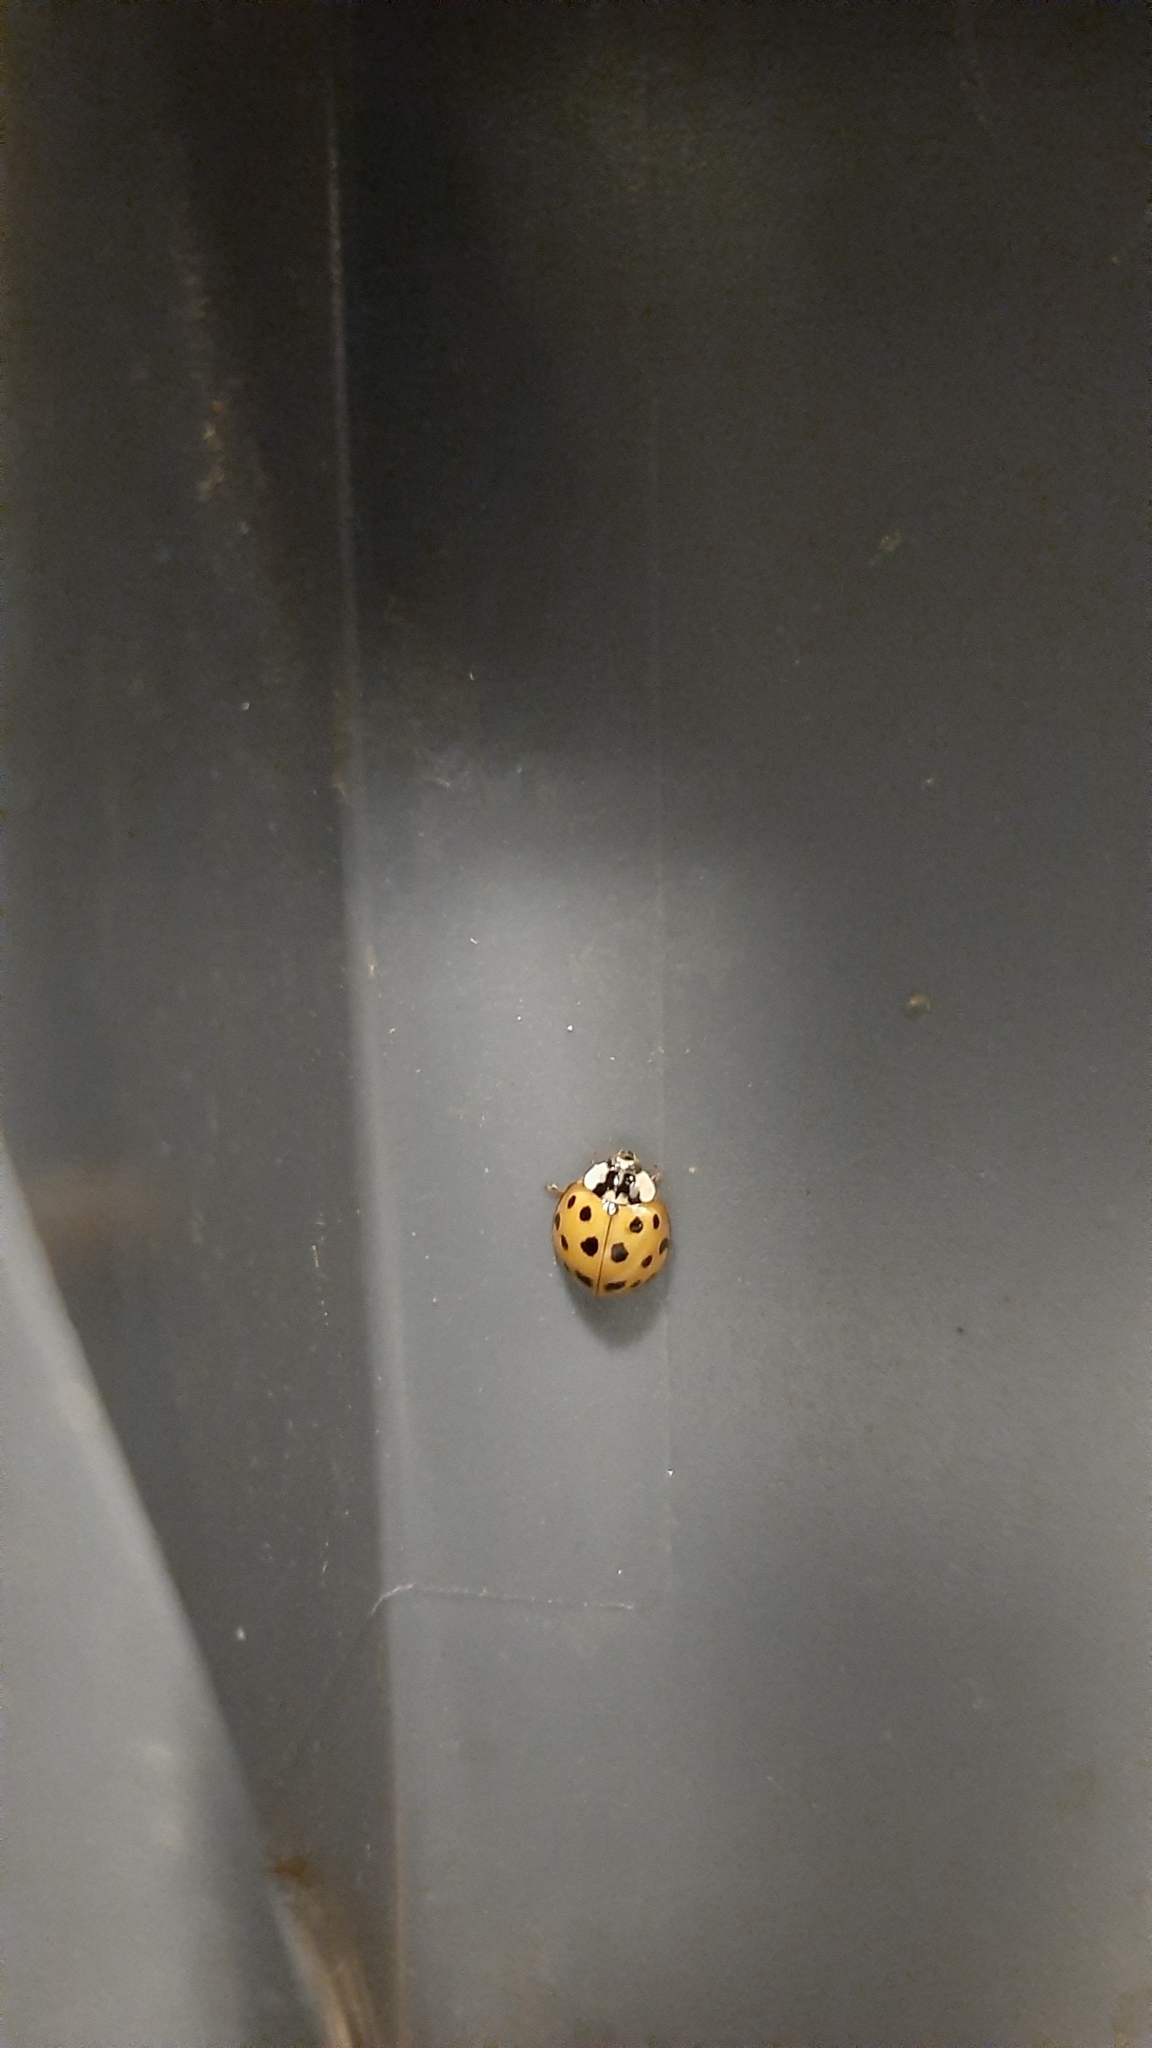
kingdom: Animalia
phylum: Arthropoda
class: Insecta
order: Coleoptera
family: Coccinellidae
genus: Harmonia
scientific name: Harmonia axyridis
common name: Harlequin ladybird
